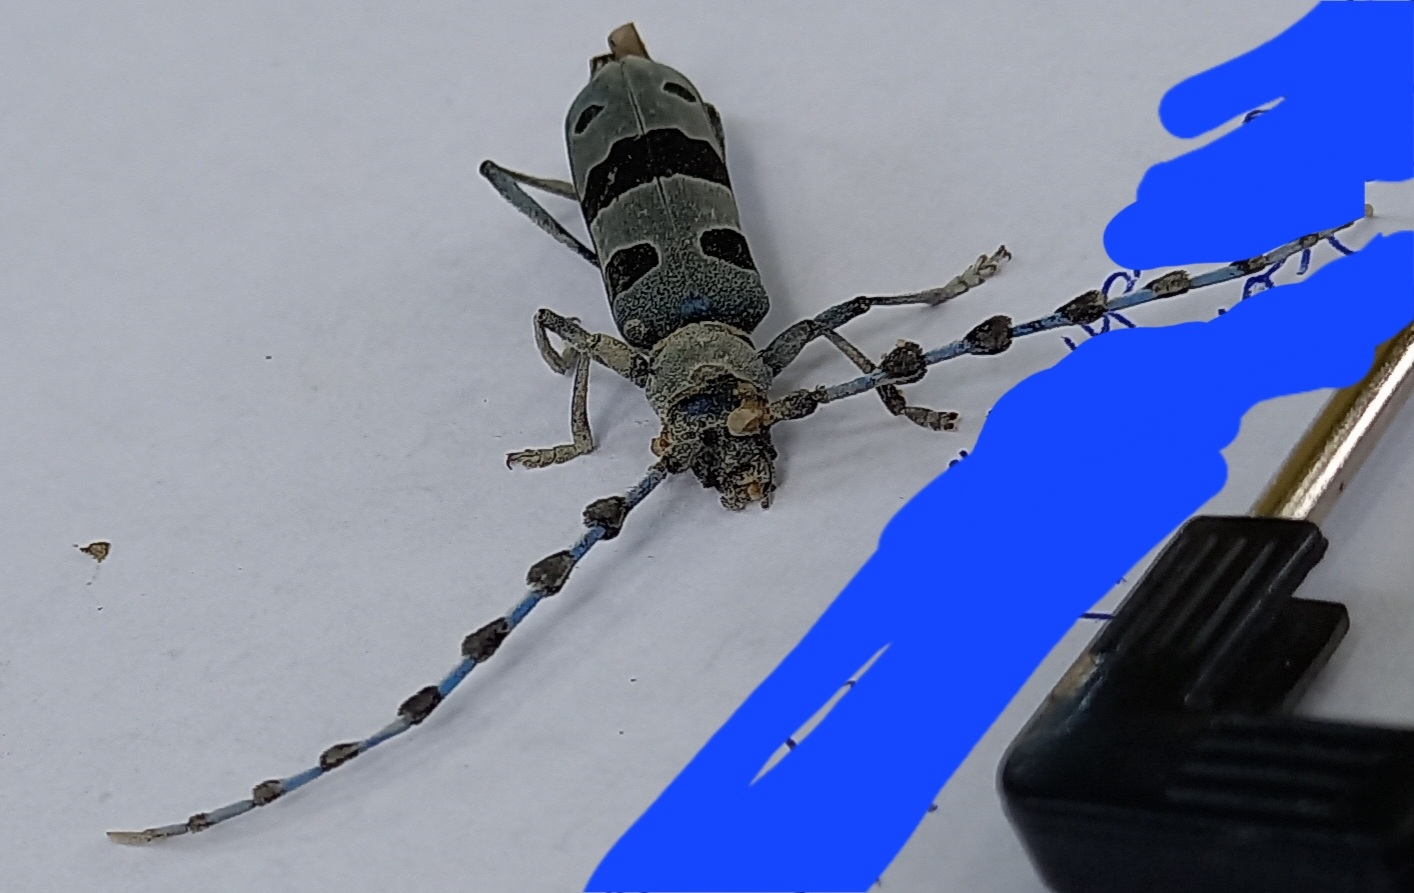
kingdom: Animalia
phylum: Arthropoda
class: Insecta
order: Coleoptera
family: Cerambycidae
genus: Rosalia
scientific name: Rosalia alpina
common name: Rosalia longicorn
